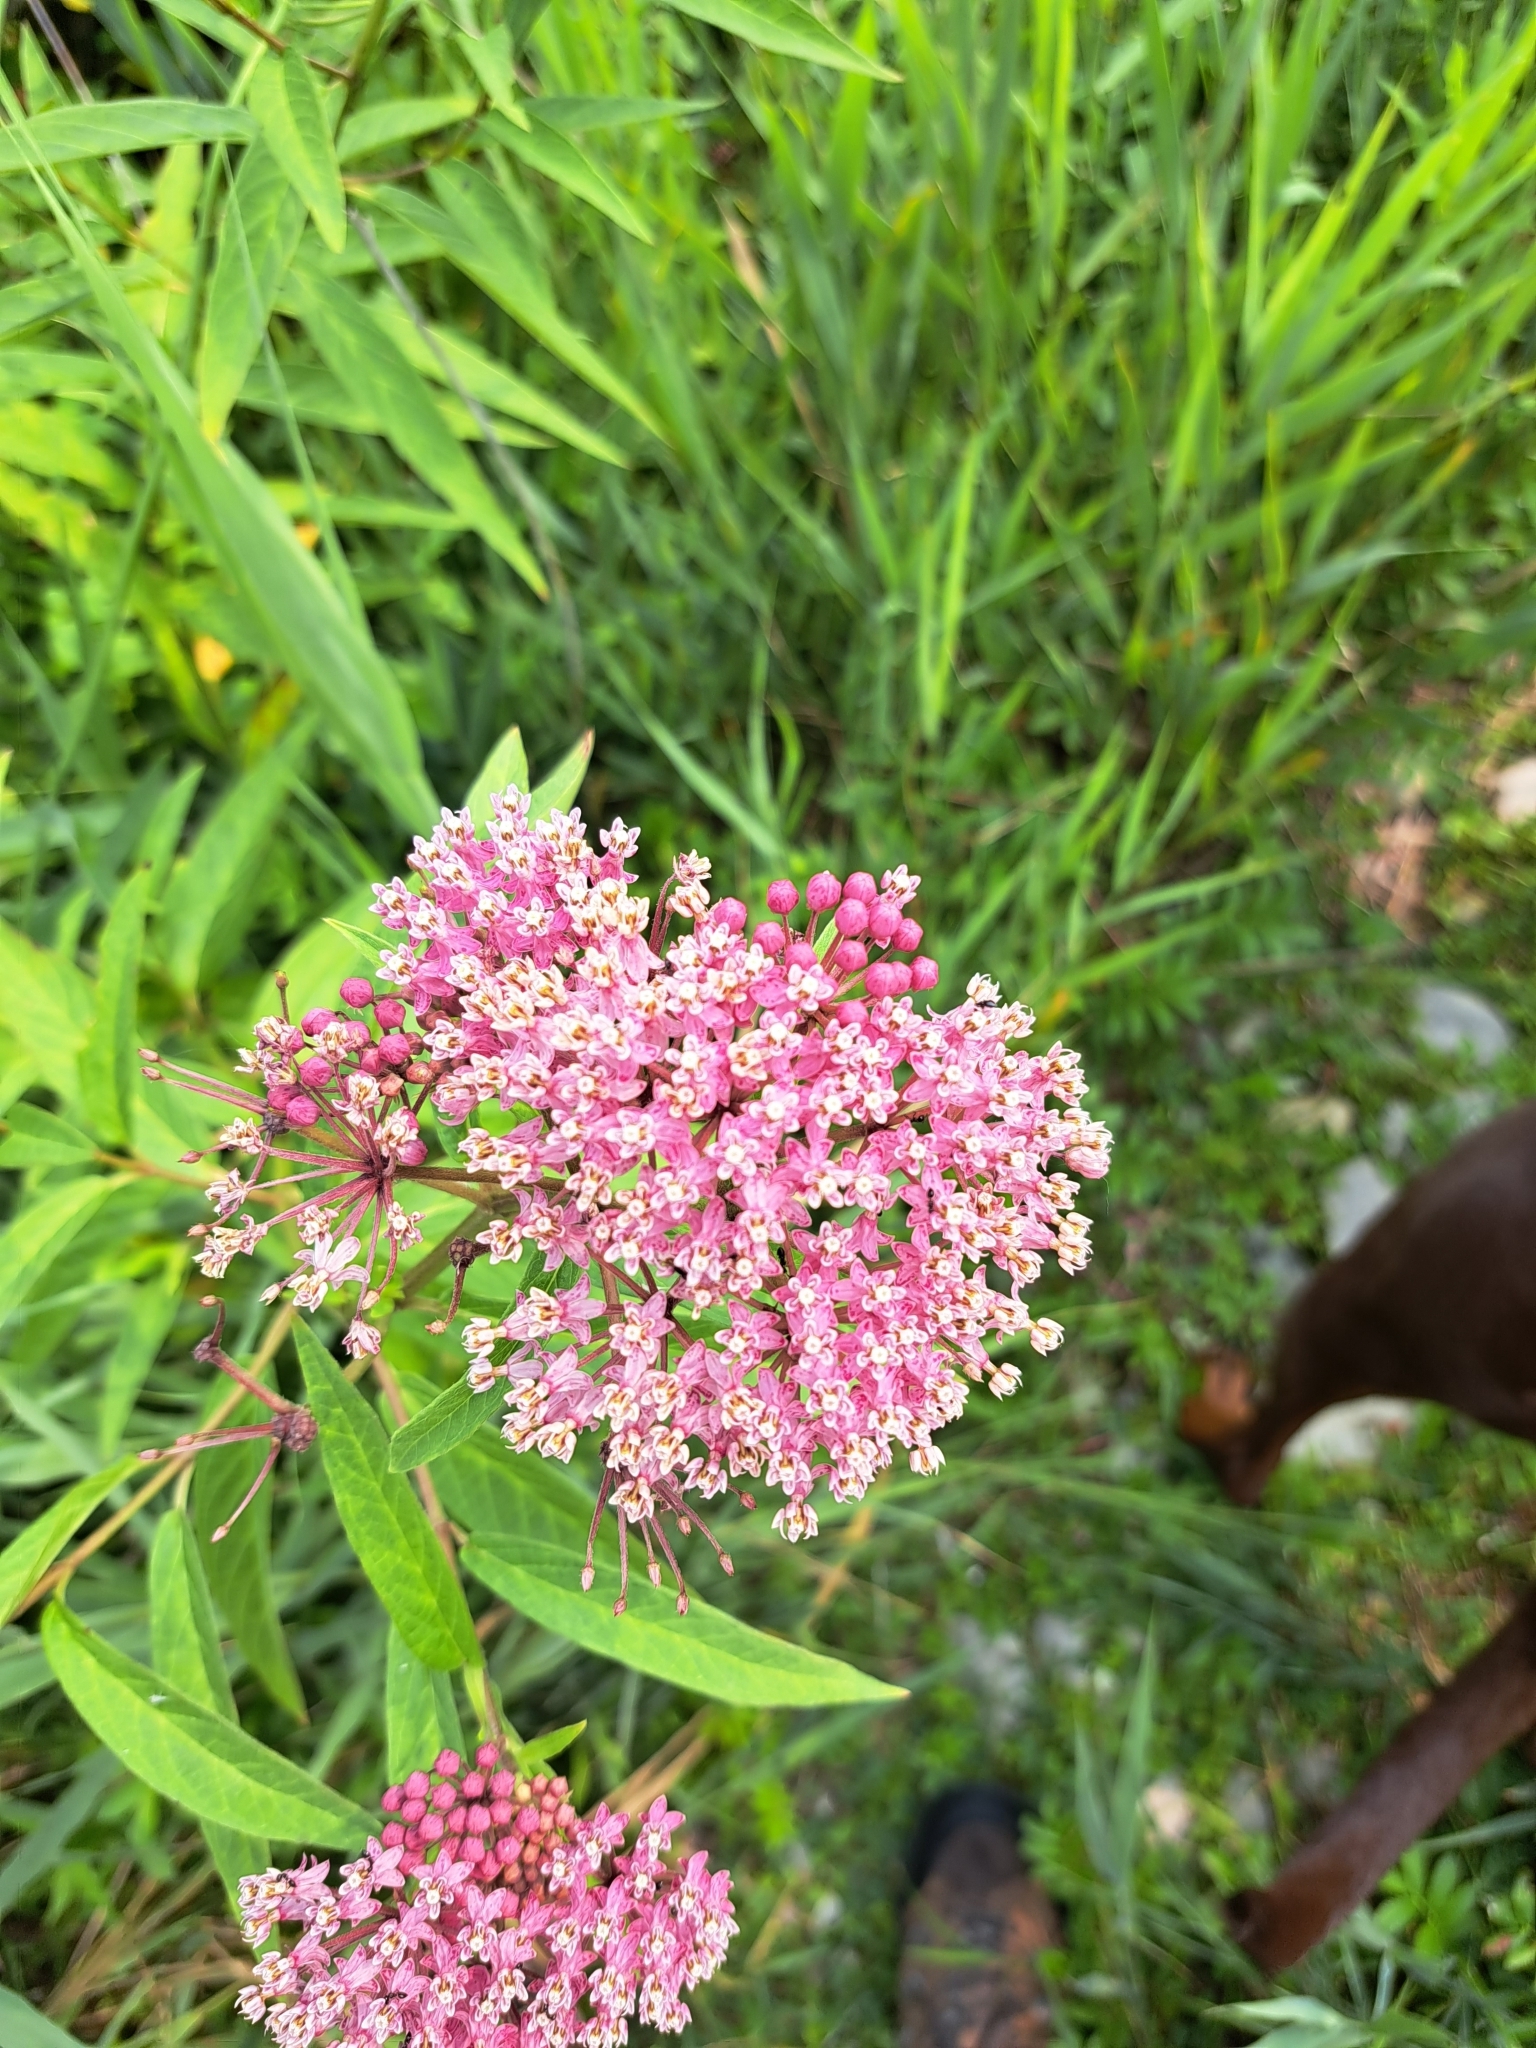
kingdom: Plantae
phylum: Tracheophyta
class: Magnoliopsida
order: Gentianales
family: Apocynaceae
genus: Asclepias
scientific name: Asclepias incarnata
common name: Swamp milkweed
